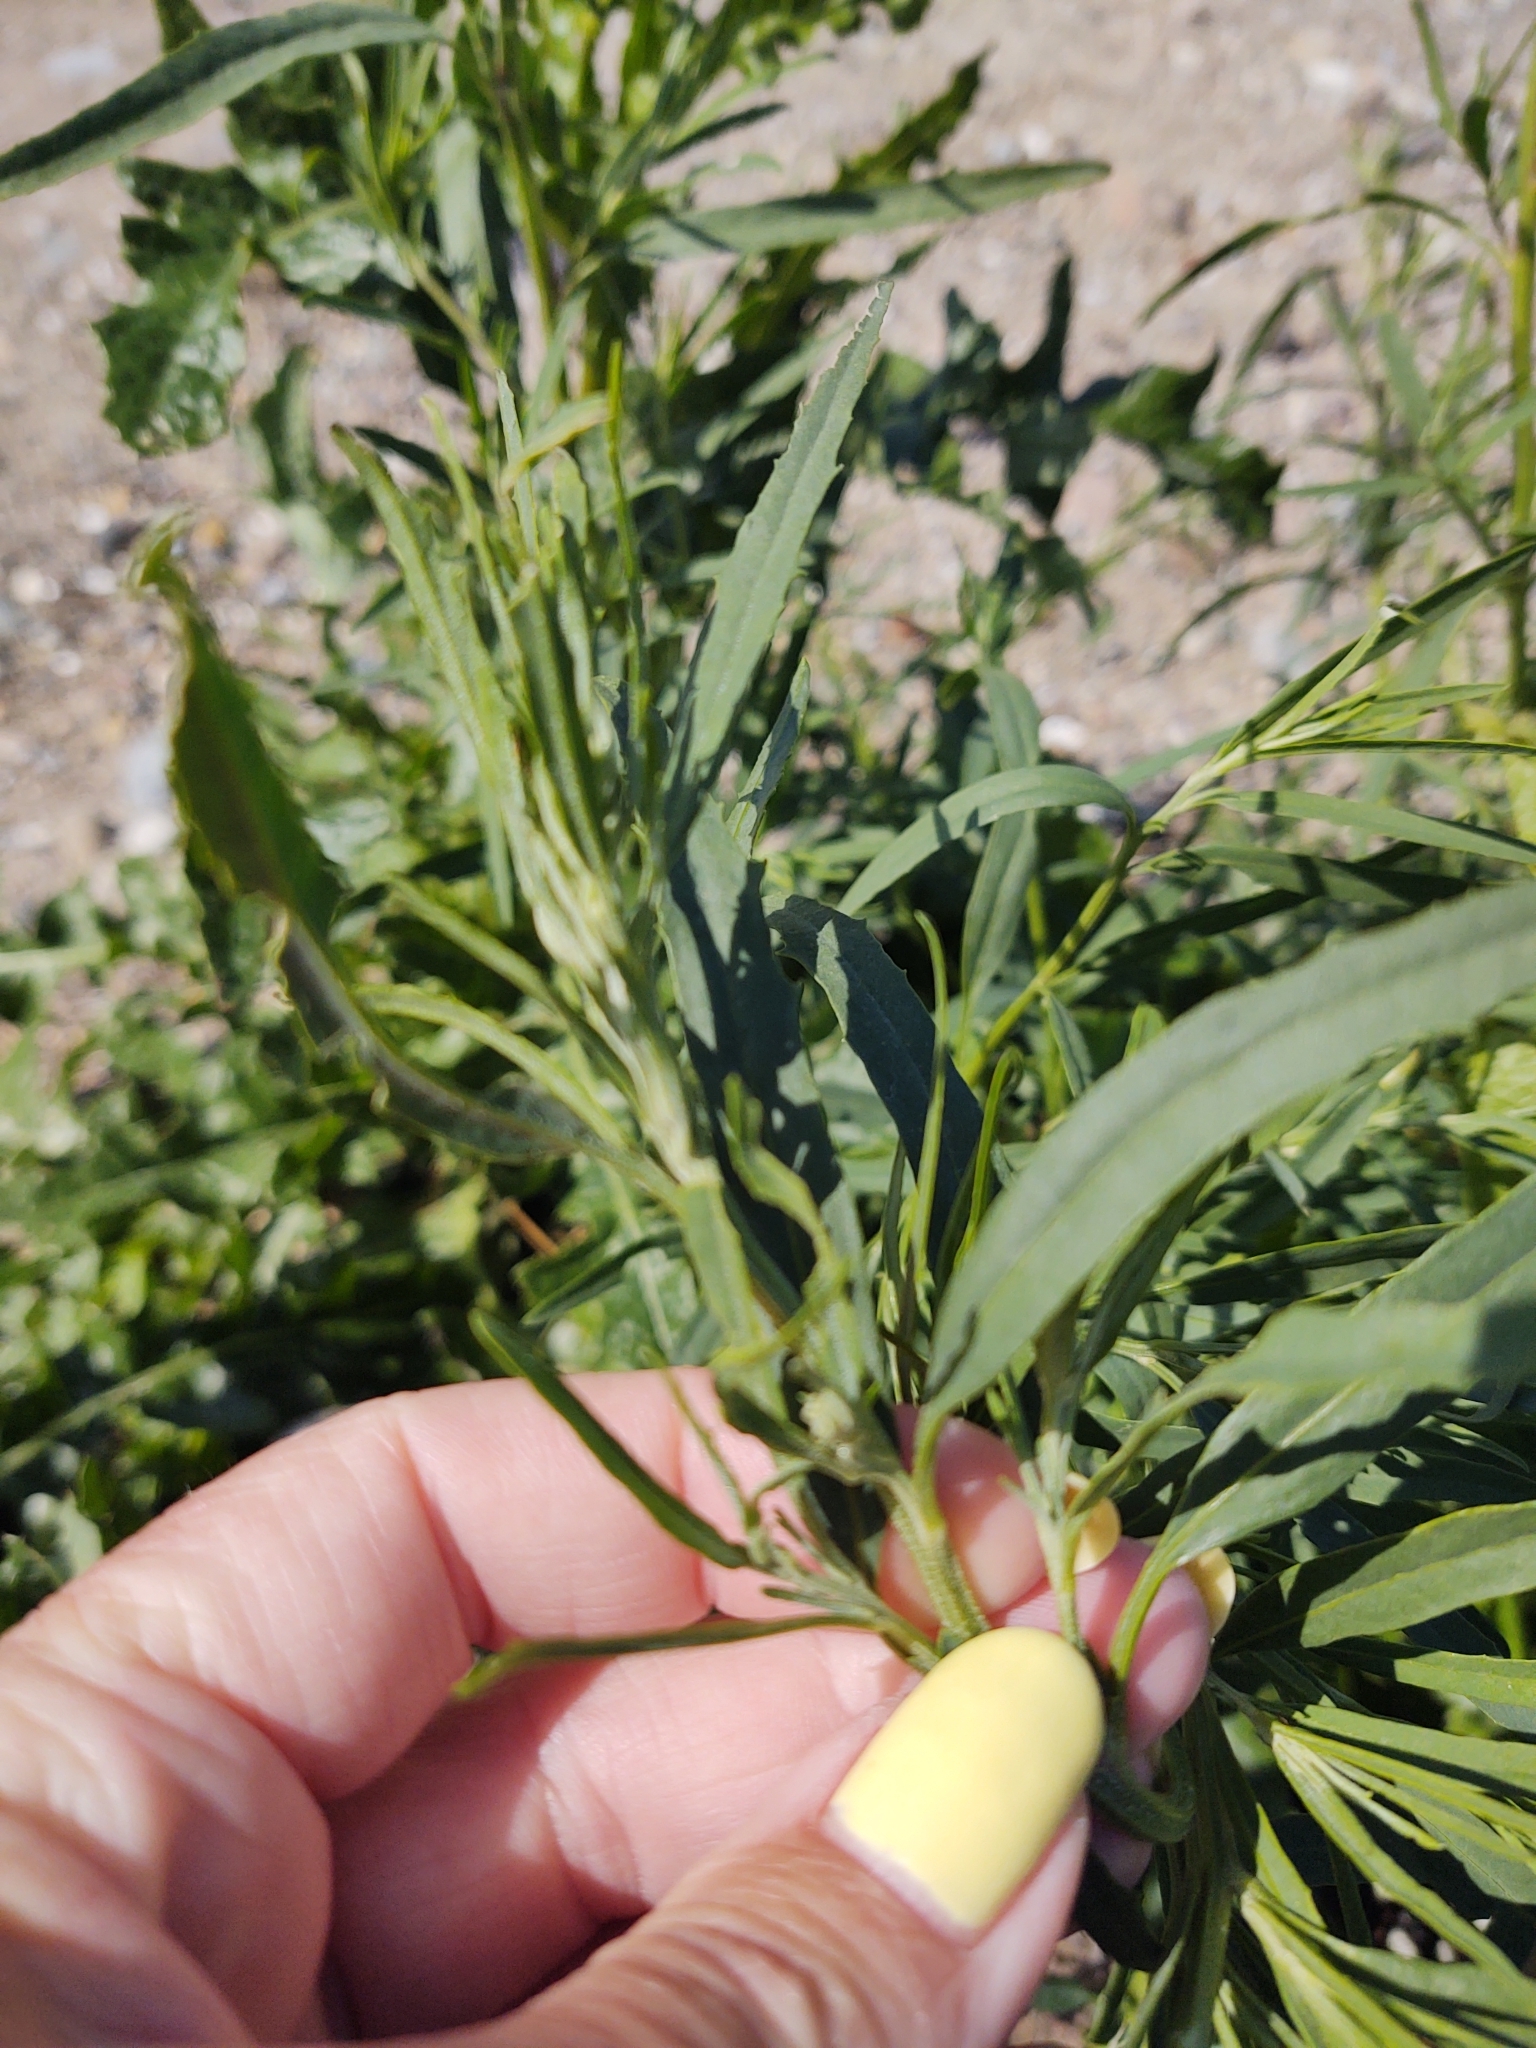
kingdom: Plantae
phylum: Tracheophyta
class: Magnoliopsida
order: Caryophyllales
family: Amaranthaceae
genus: Atriplex
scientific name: Atriplex littoralis
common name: Grass-leaved orache
